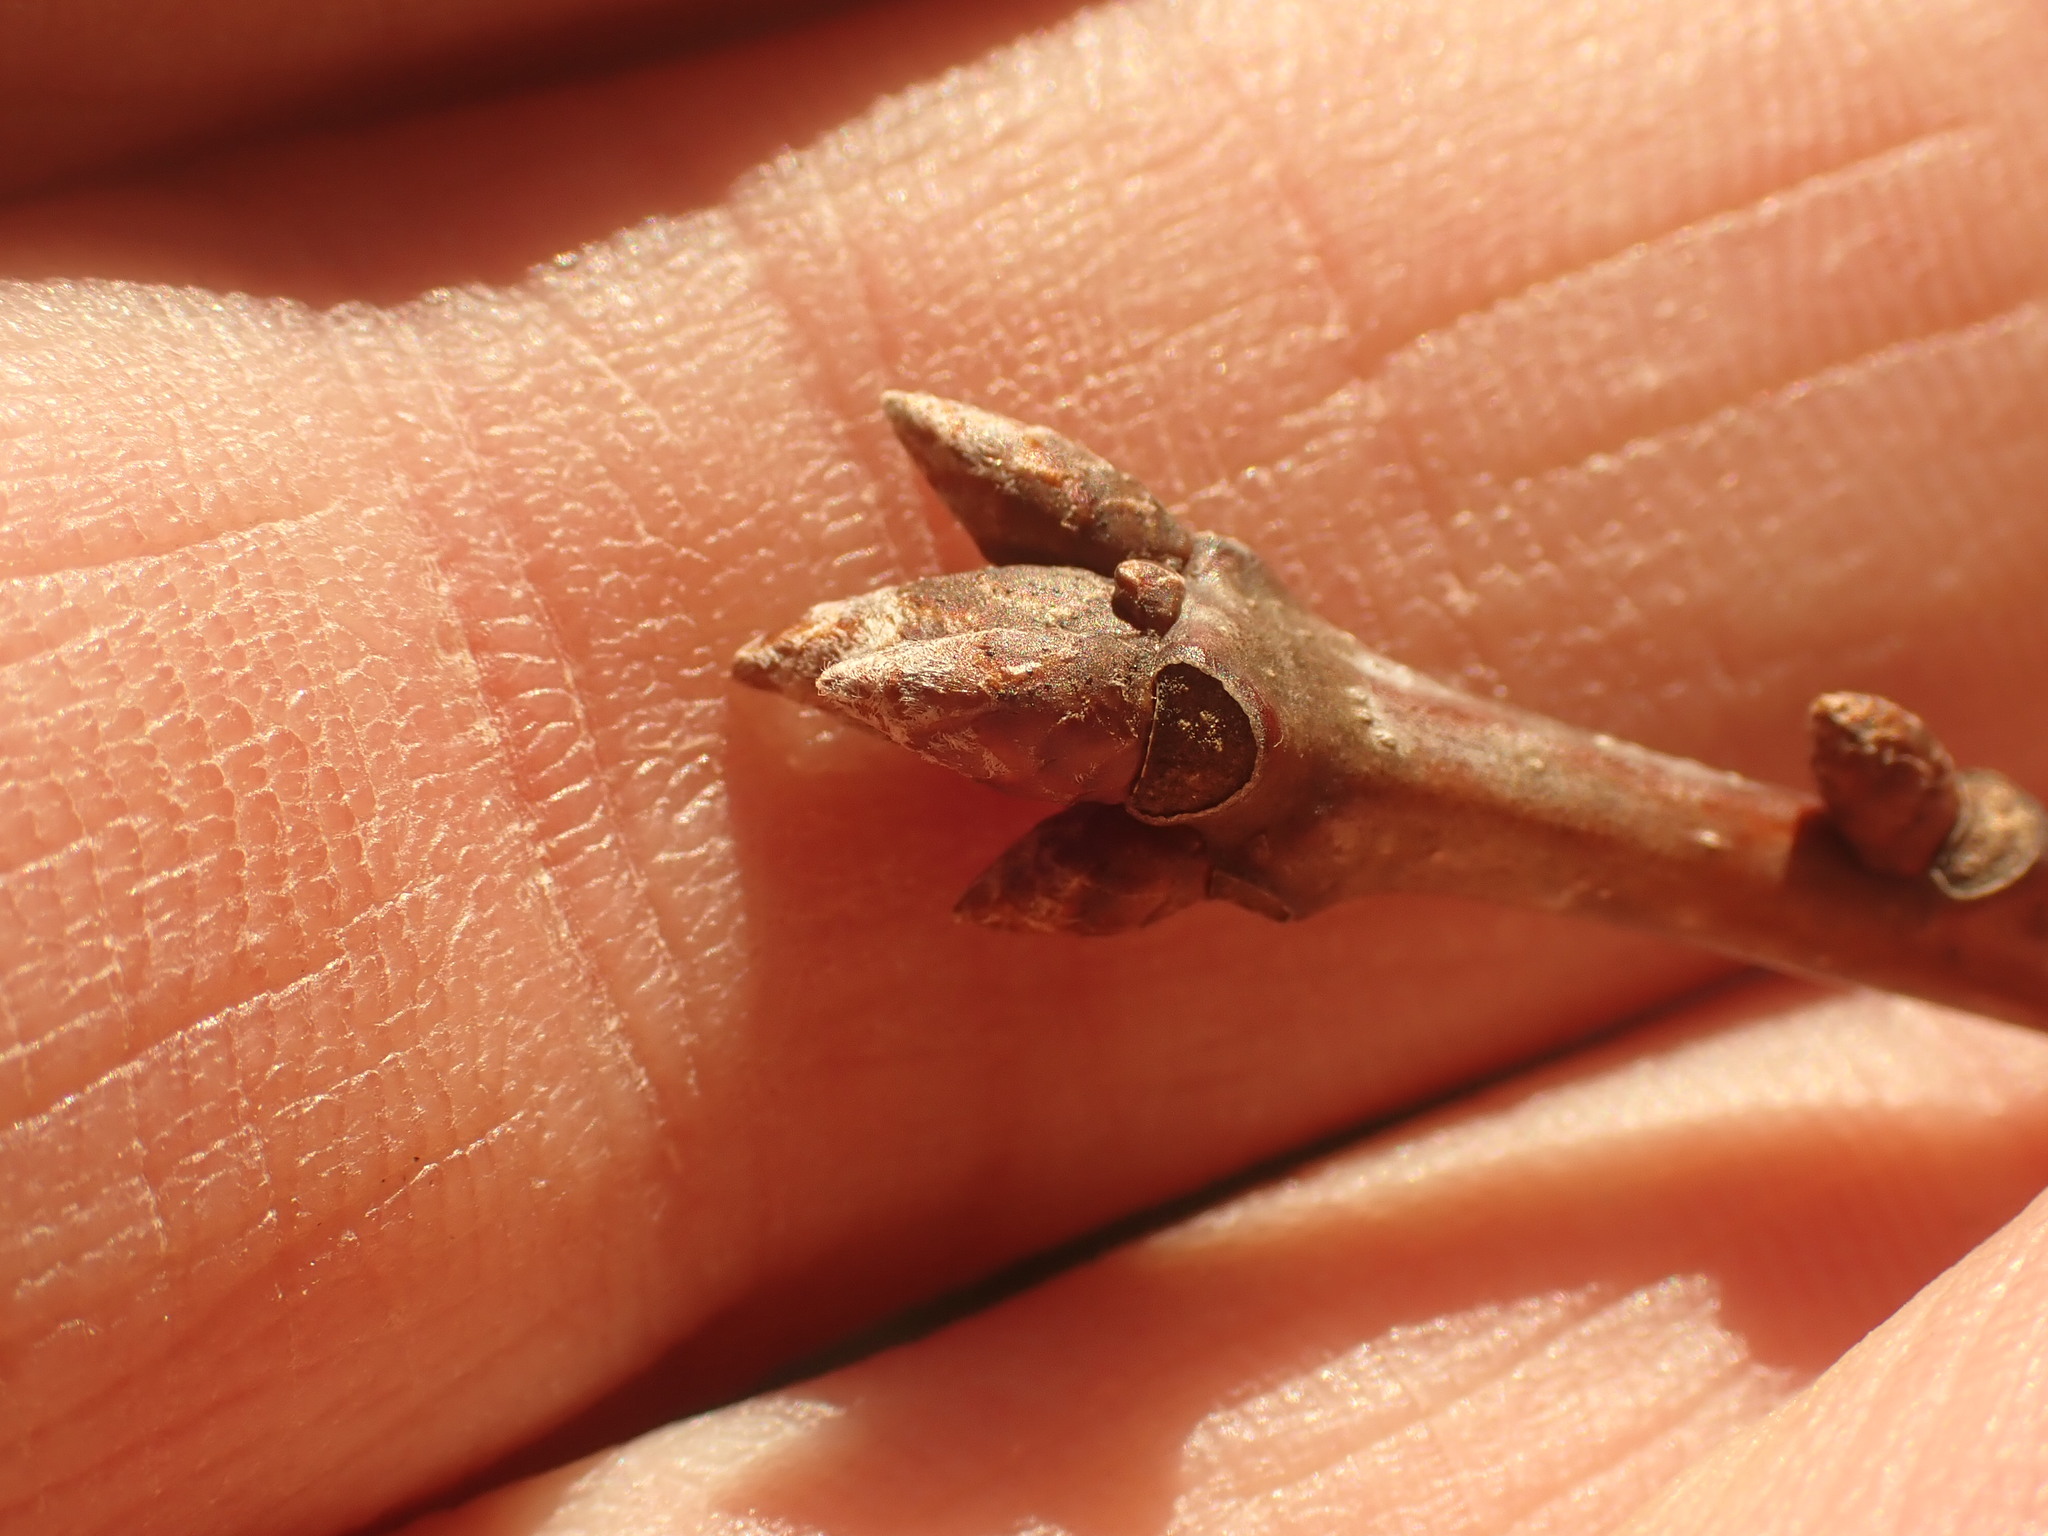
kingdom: Plantae
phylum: Tracheophyta
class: Magnoliopsida
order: Fagales
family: Fagaceae
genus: Quercus
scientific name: Quercus rubra
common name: Red oak
